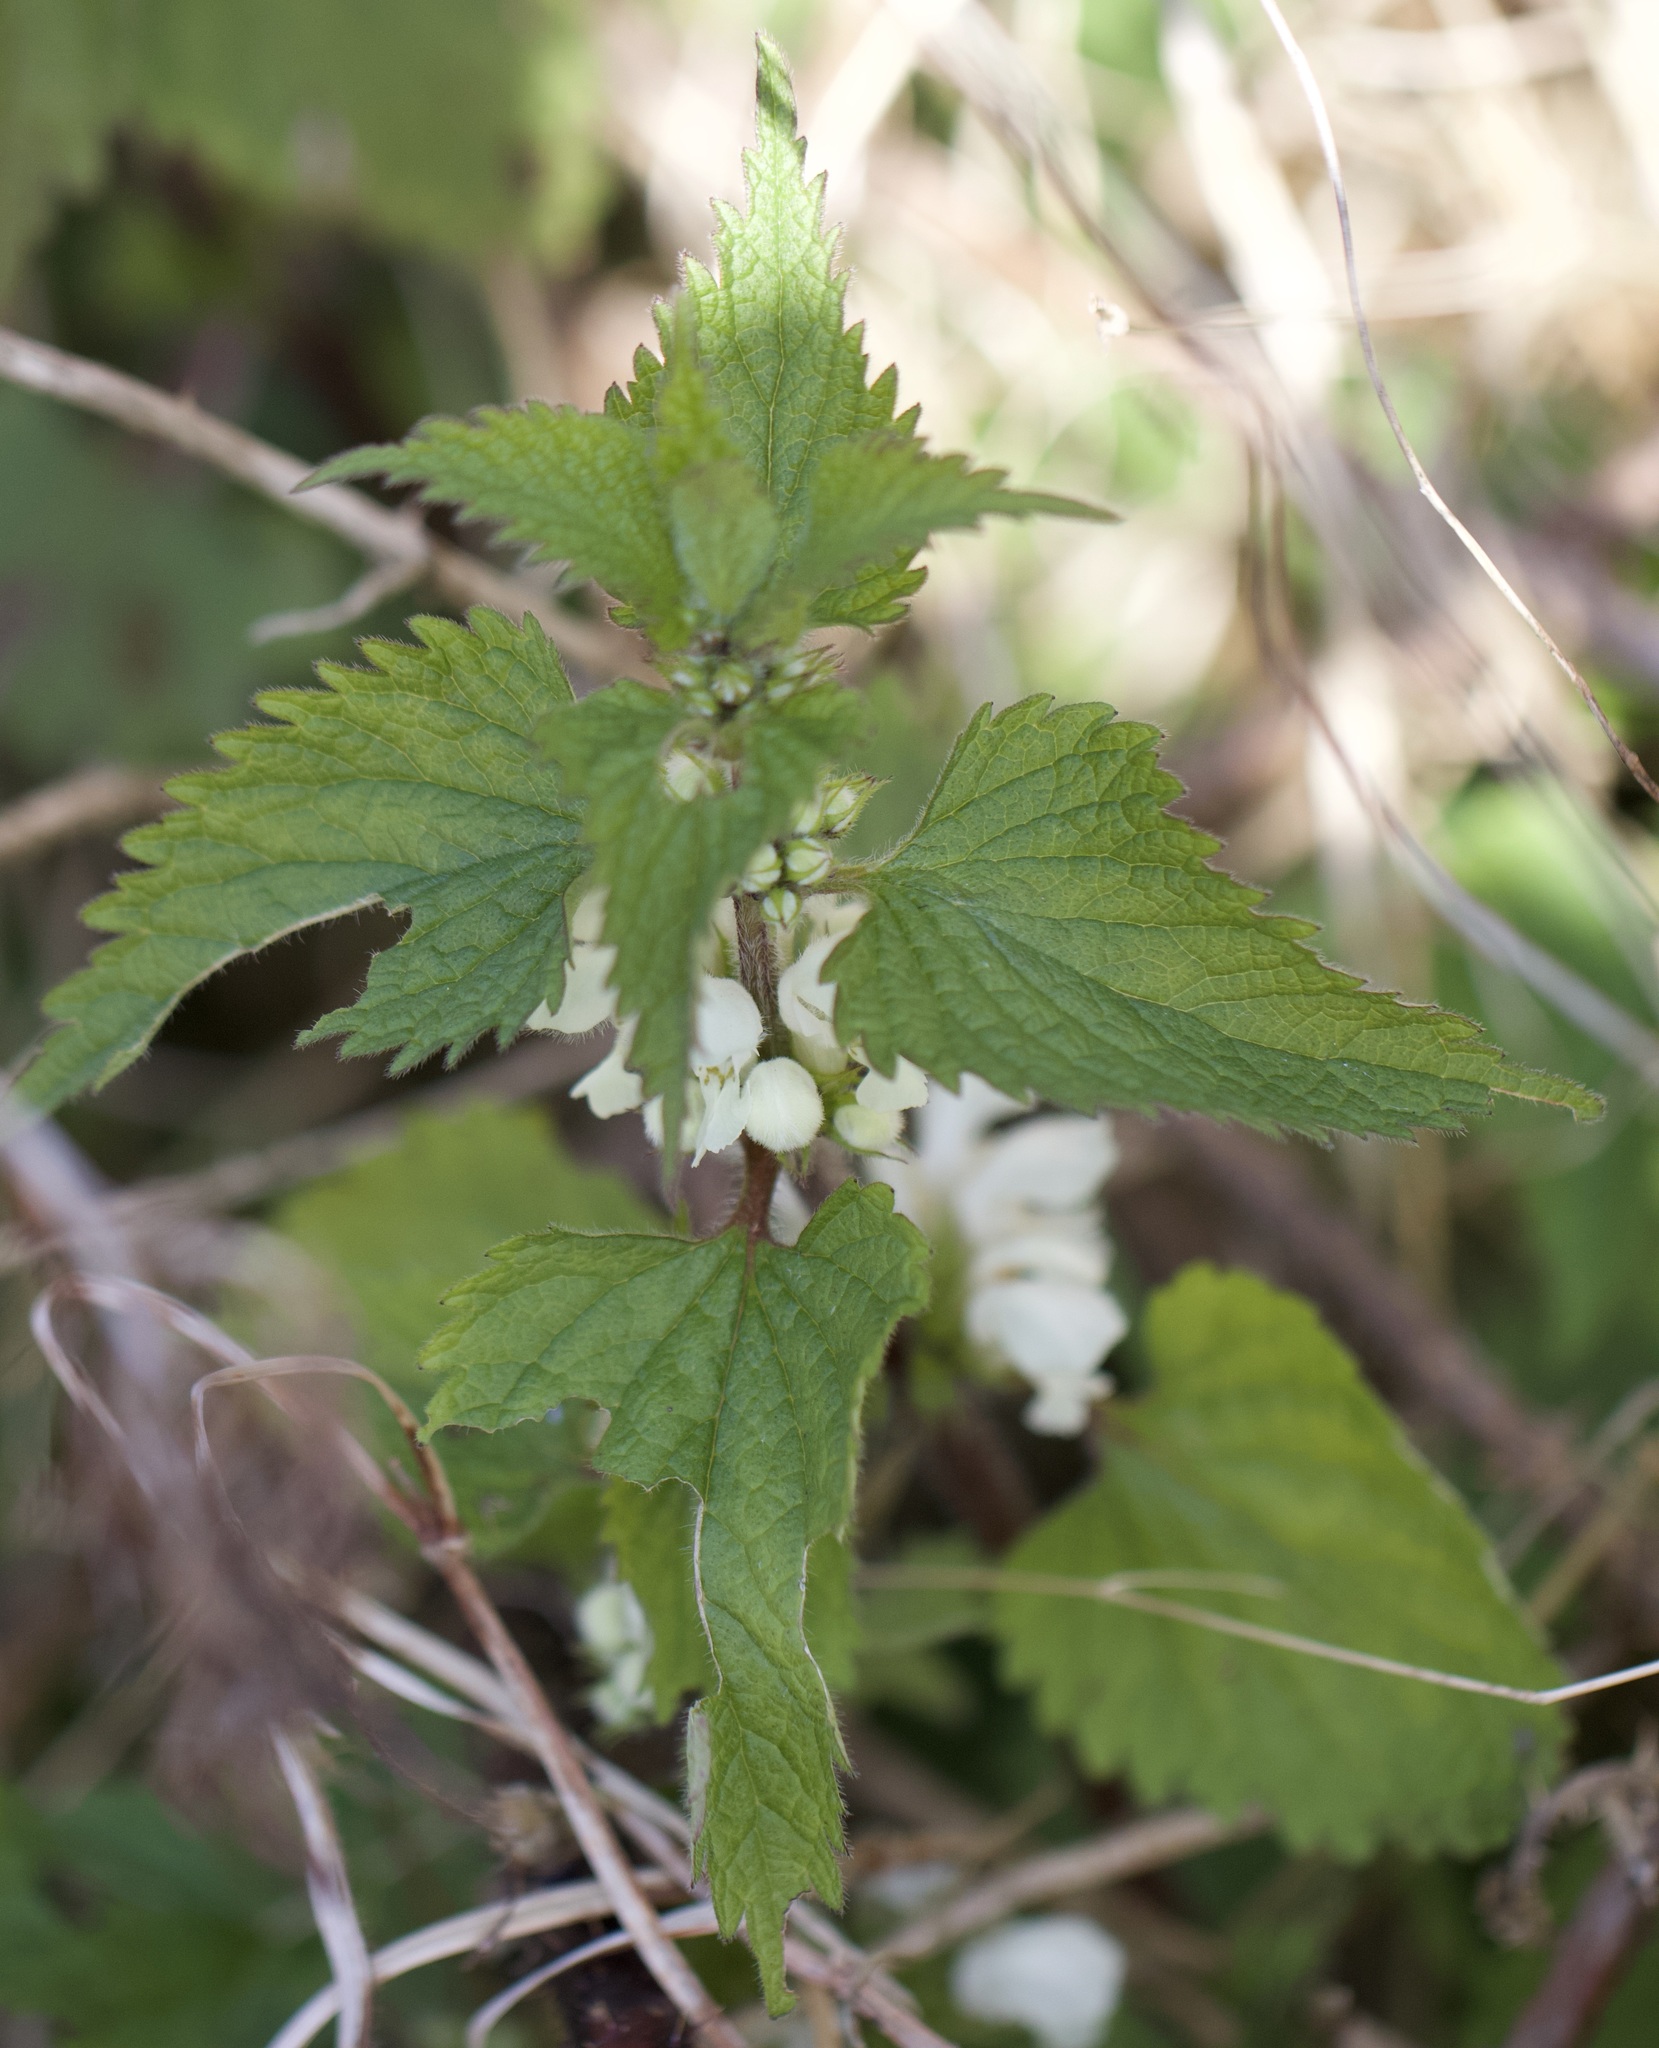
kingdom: Plantae
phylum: Tracheophyta
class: Magnoliopsida
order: Lamiales
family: Lamiaceae
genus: Lamium
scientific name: Lamium album
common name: White dead-nettle
